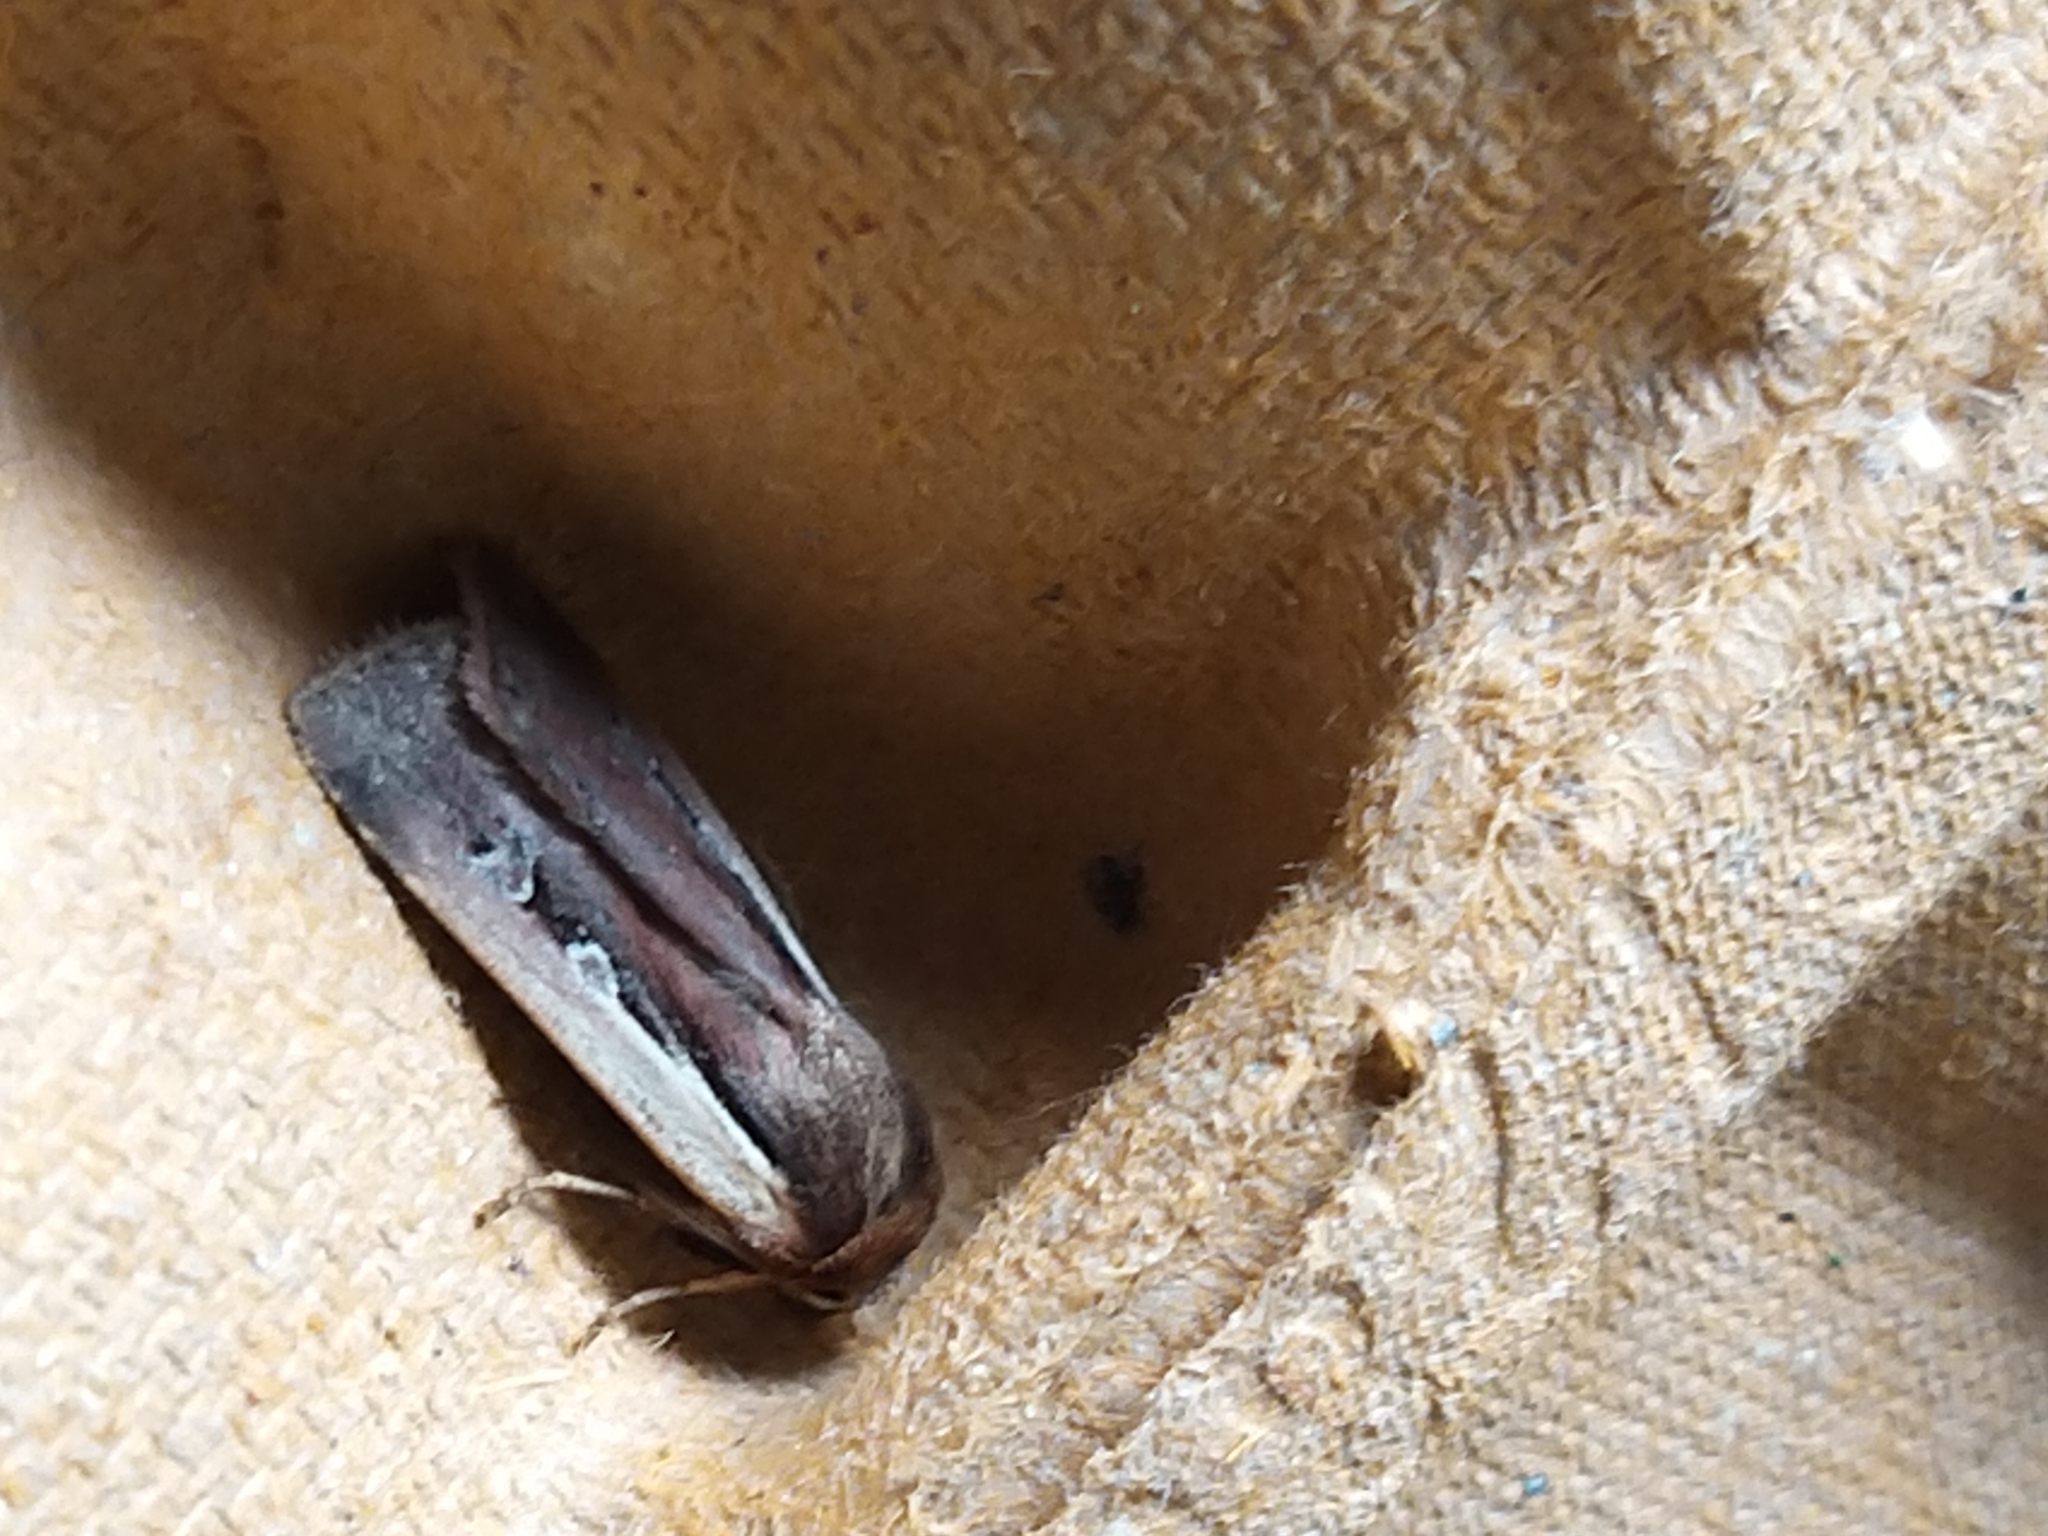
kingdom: Animalia
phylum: Arthropoda
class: Insecta
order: Lepidoptera
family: Noctuidae
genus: Ochropleura
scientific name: Ochropleura plecta
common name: Flame shoulder
